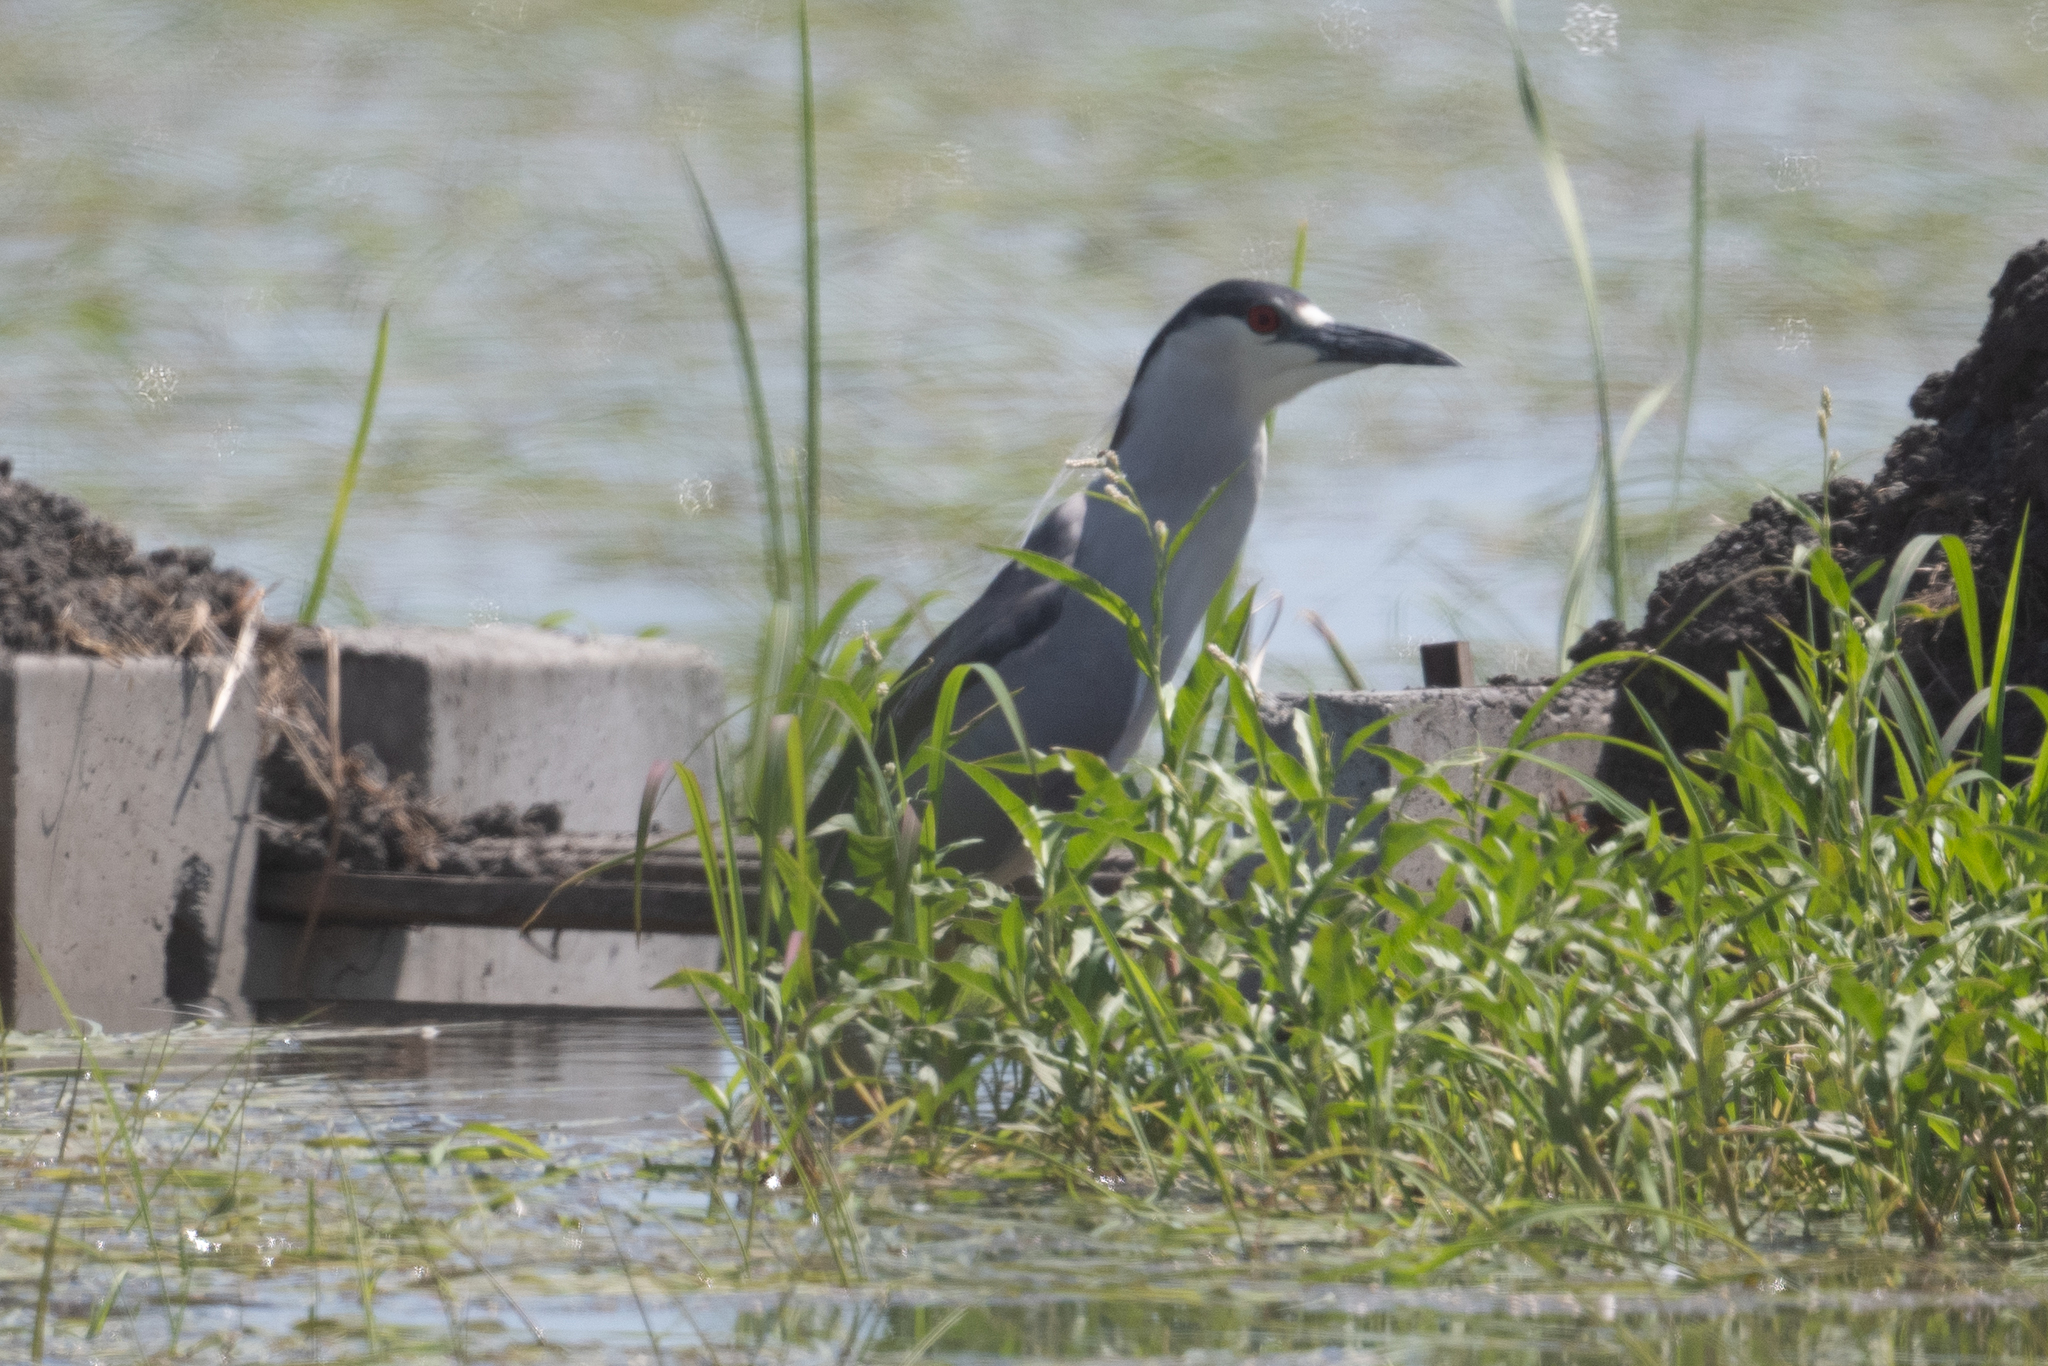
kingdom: Animalia
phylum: Chordata
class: Aves
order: Pelecaniformes
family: Ardeidae
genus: Nycticorax
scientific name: Nycticorax nycticorax
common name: Black-crowned night heron
